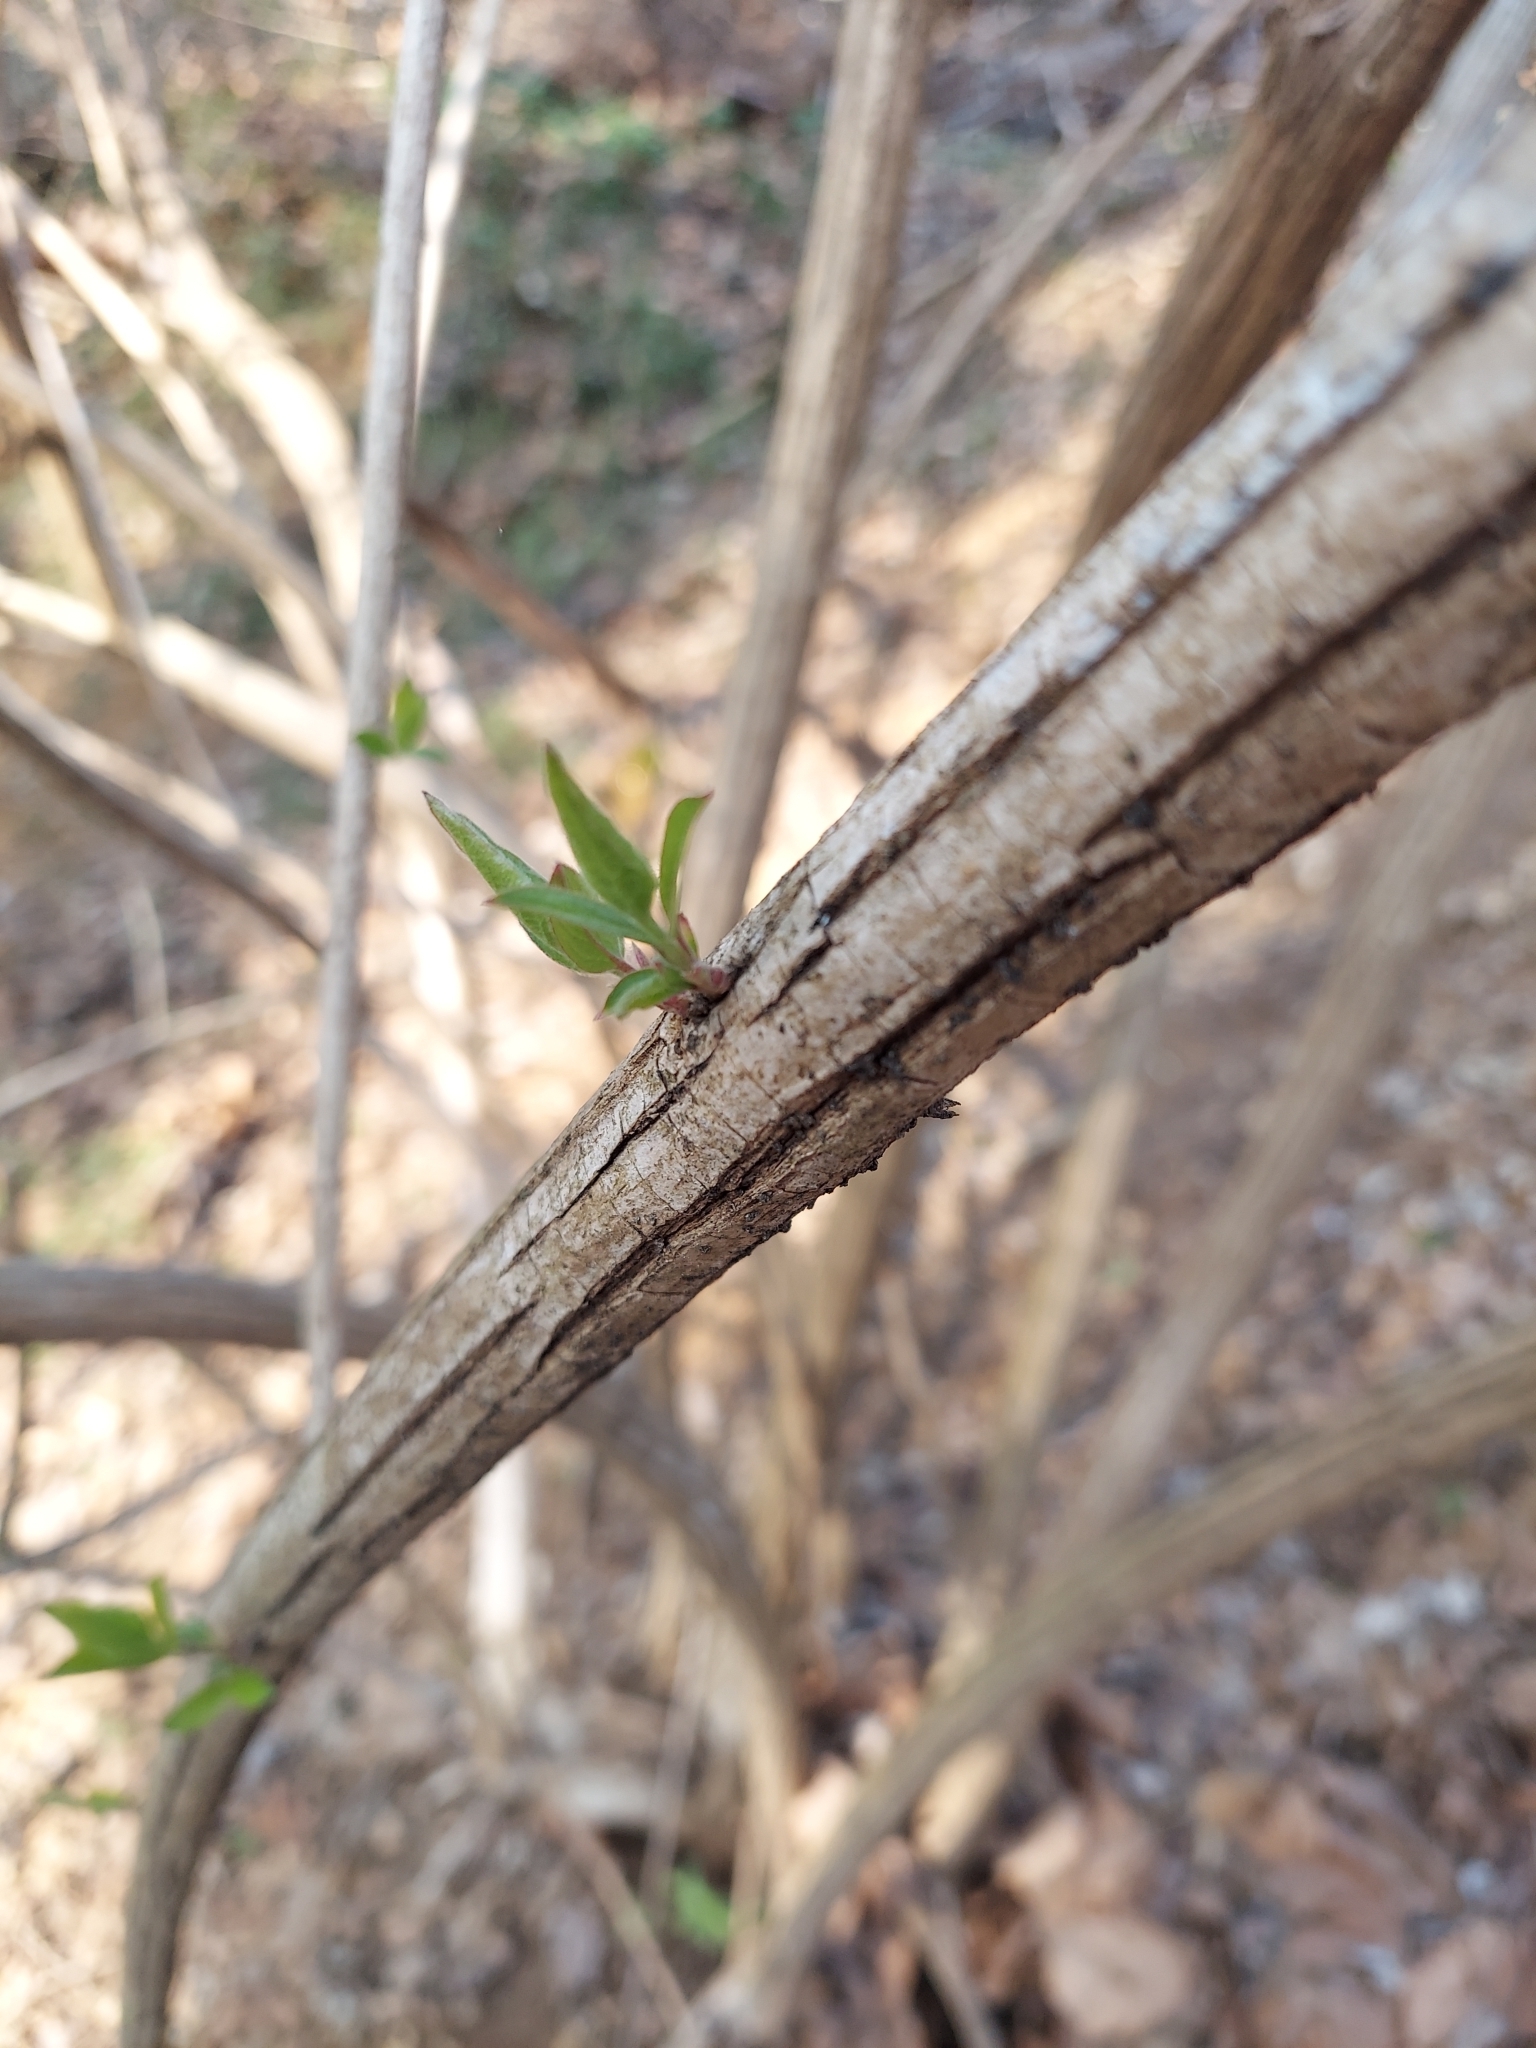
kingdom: Plantae
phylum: Tracheophyta
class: Magnoliopsida
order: Dipsacales
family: Caprifoliaceae
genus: Lonicera
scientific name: Lonicera maackii
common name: Amur honeysuckle
